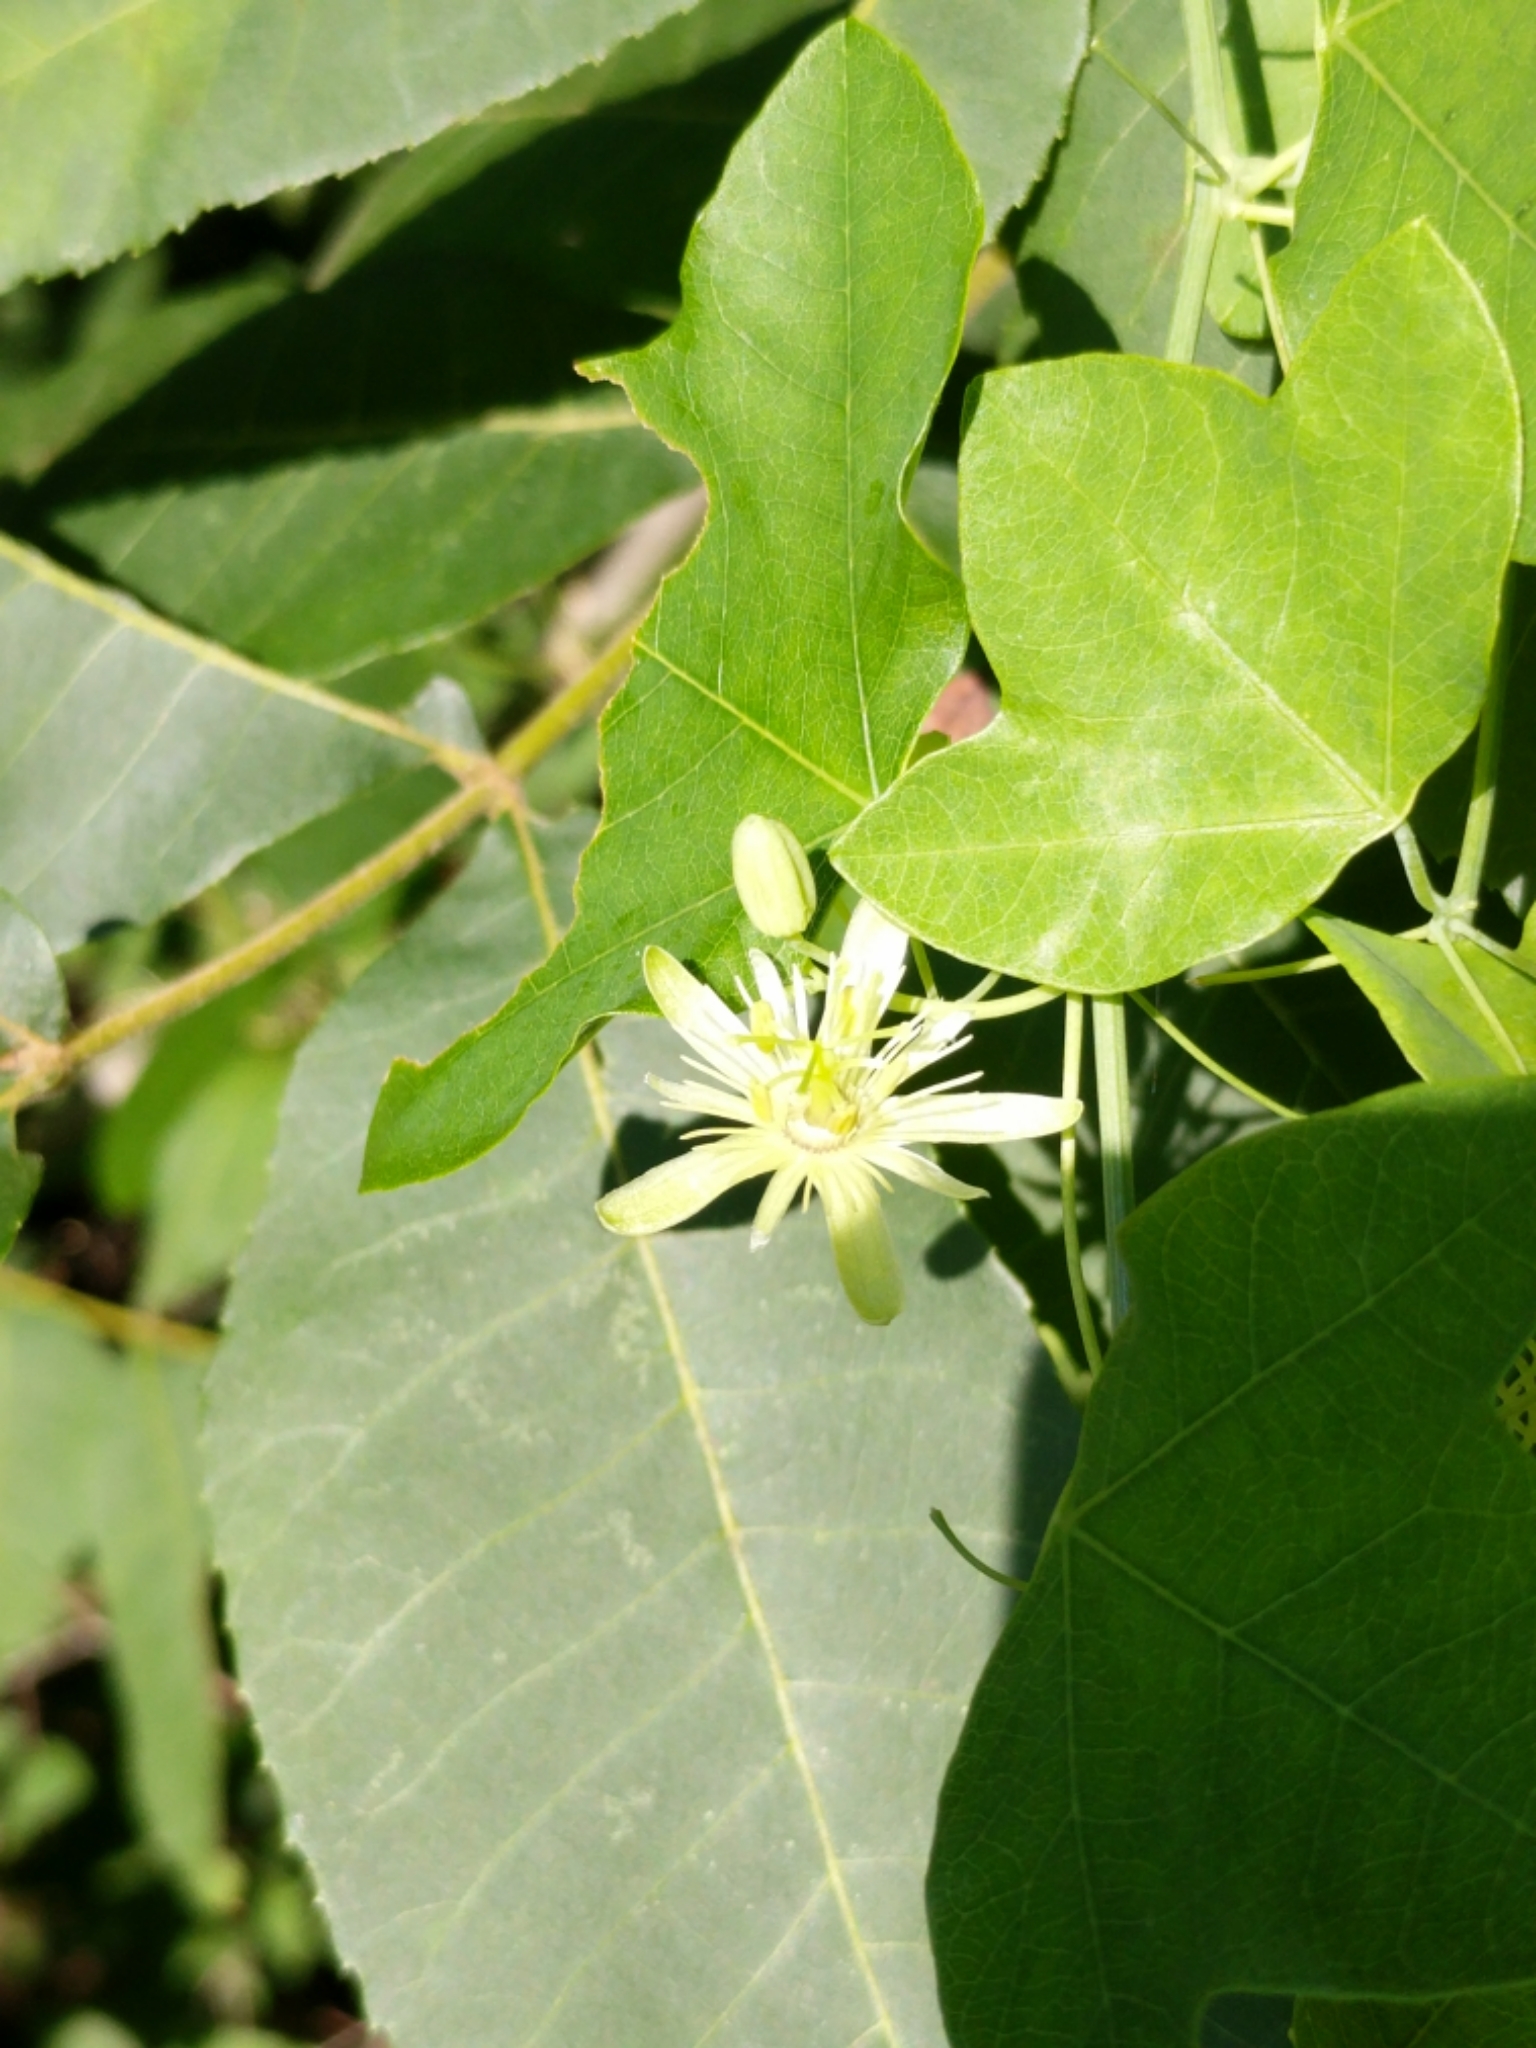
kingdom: Plantae
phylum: Tracheophyta
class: Magnoliopsida
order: Malpighiales
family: Passifloraceae
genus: Passiflora
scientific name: Passiflora lutea
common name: Yellow passionflower
